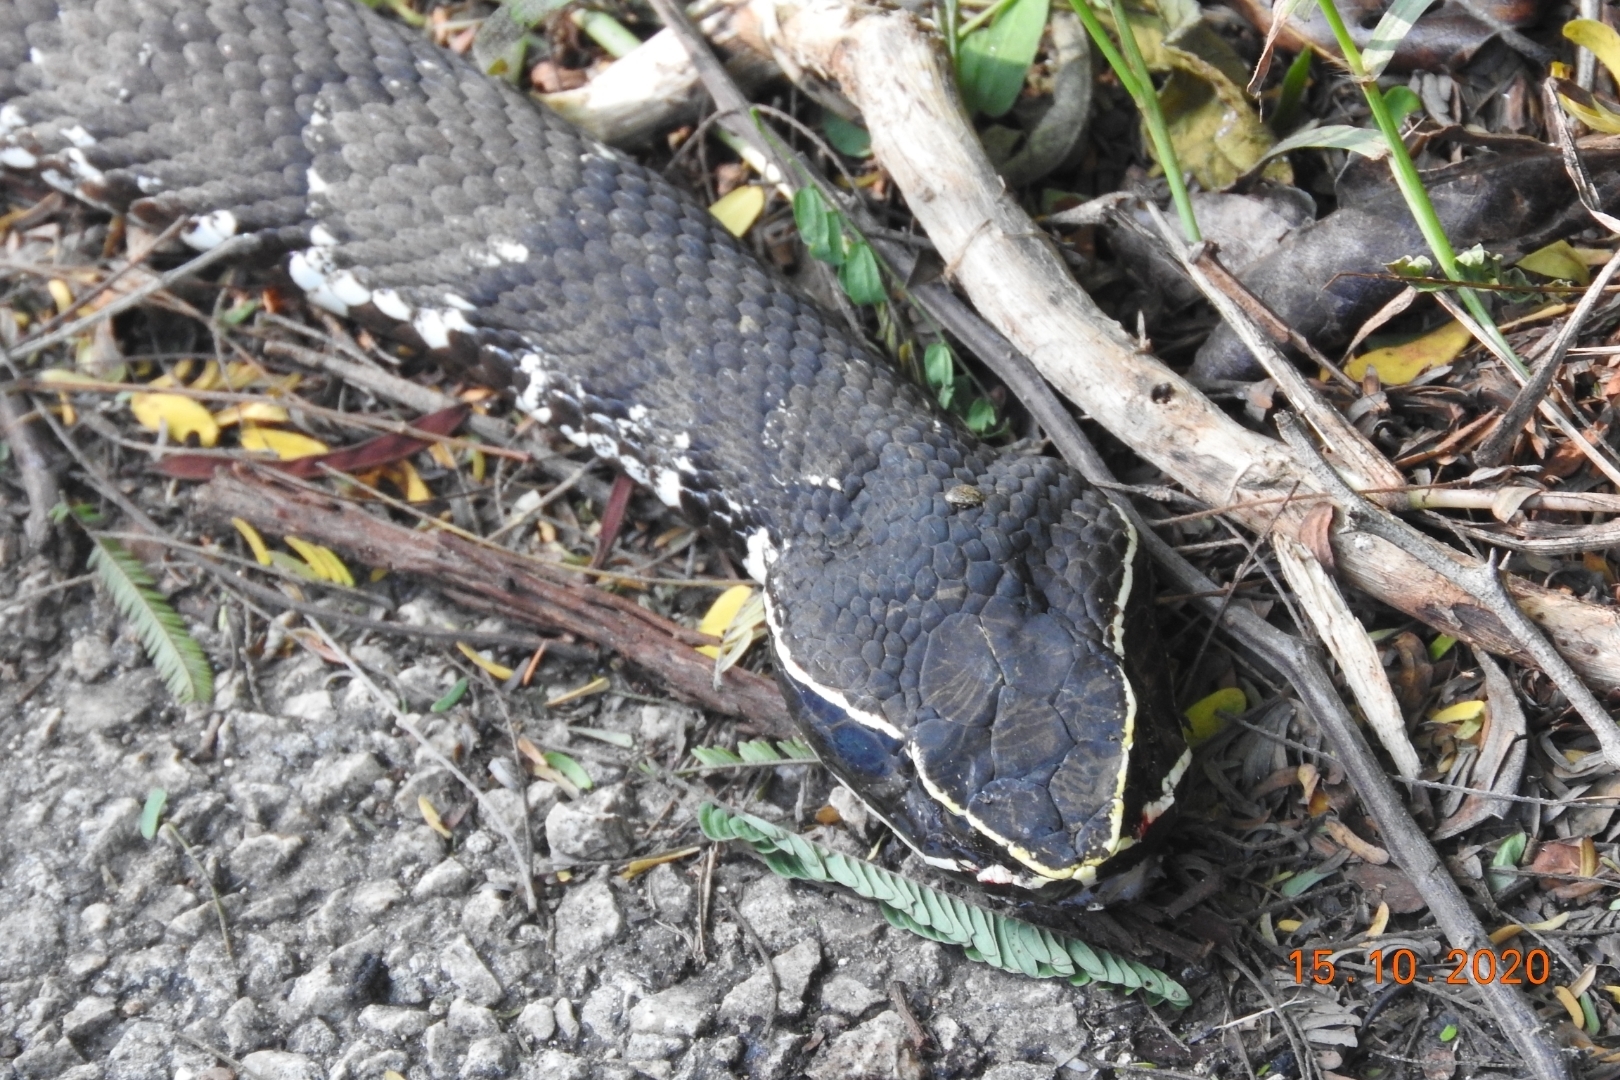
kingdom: Animalia
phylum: Chordata
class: Squamata
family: Viperidae
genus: Agkistrodon
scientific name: Agkistrodon russeolus
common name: Cantil
